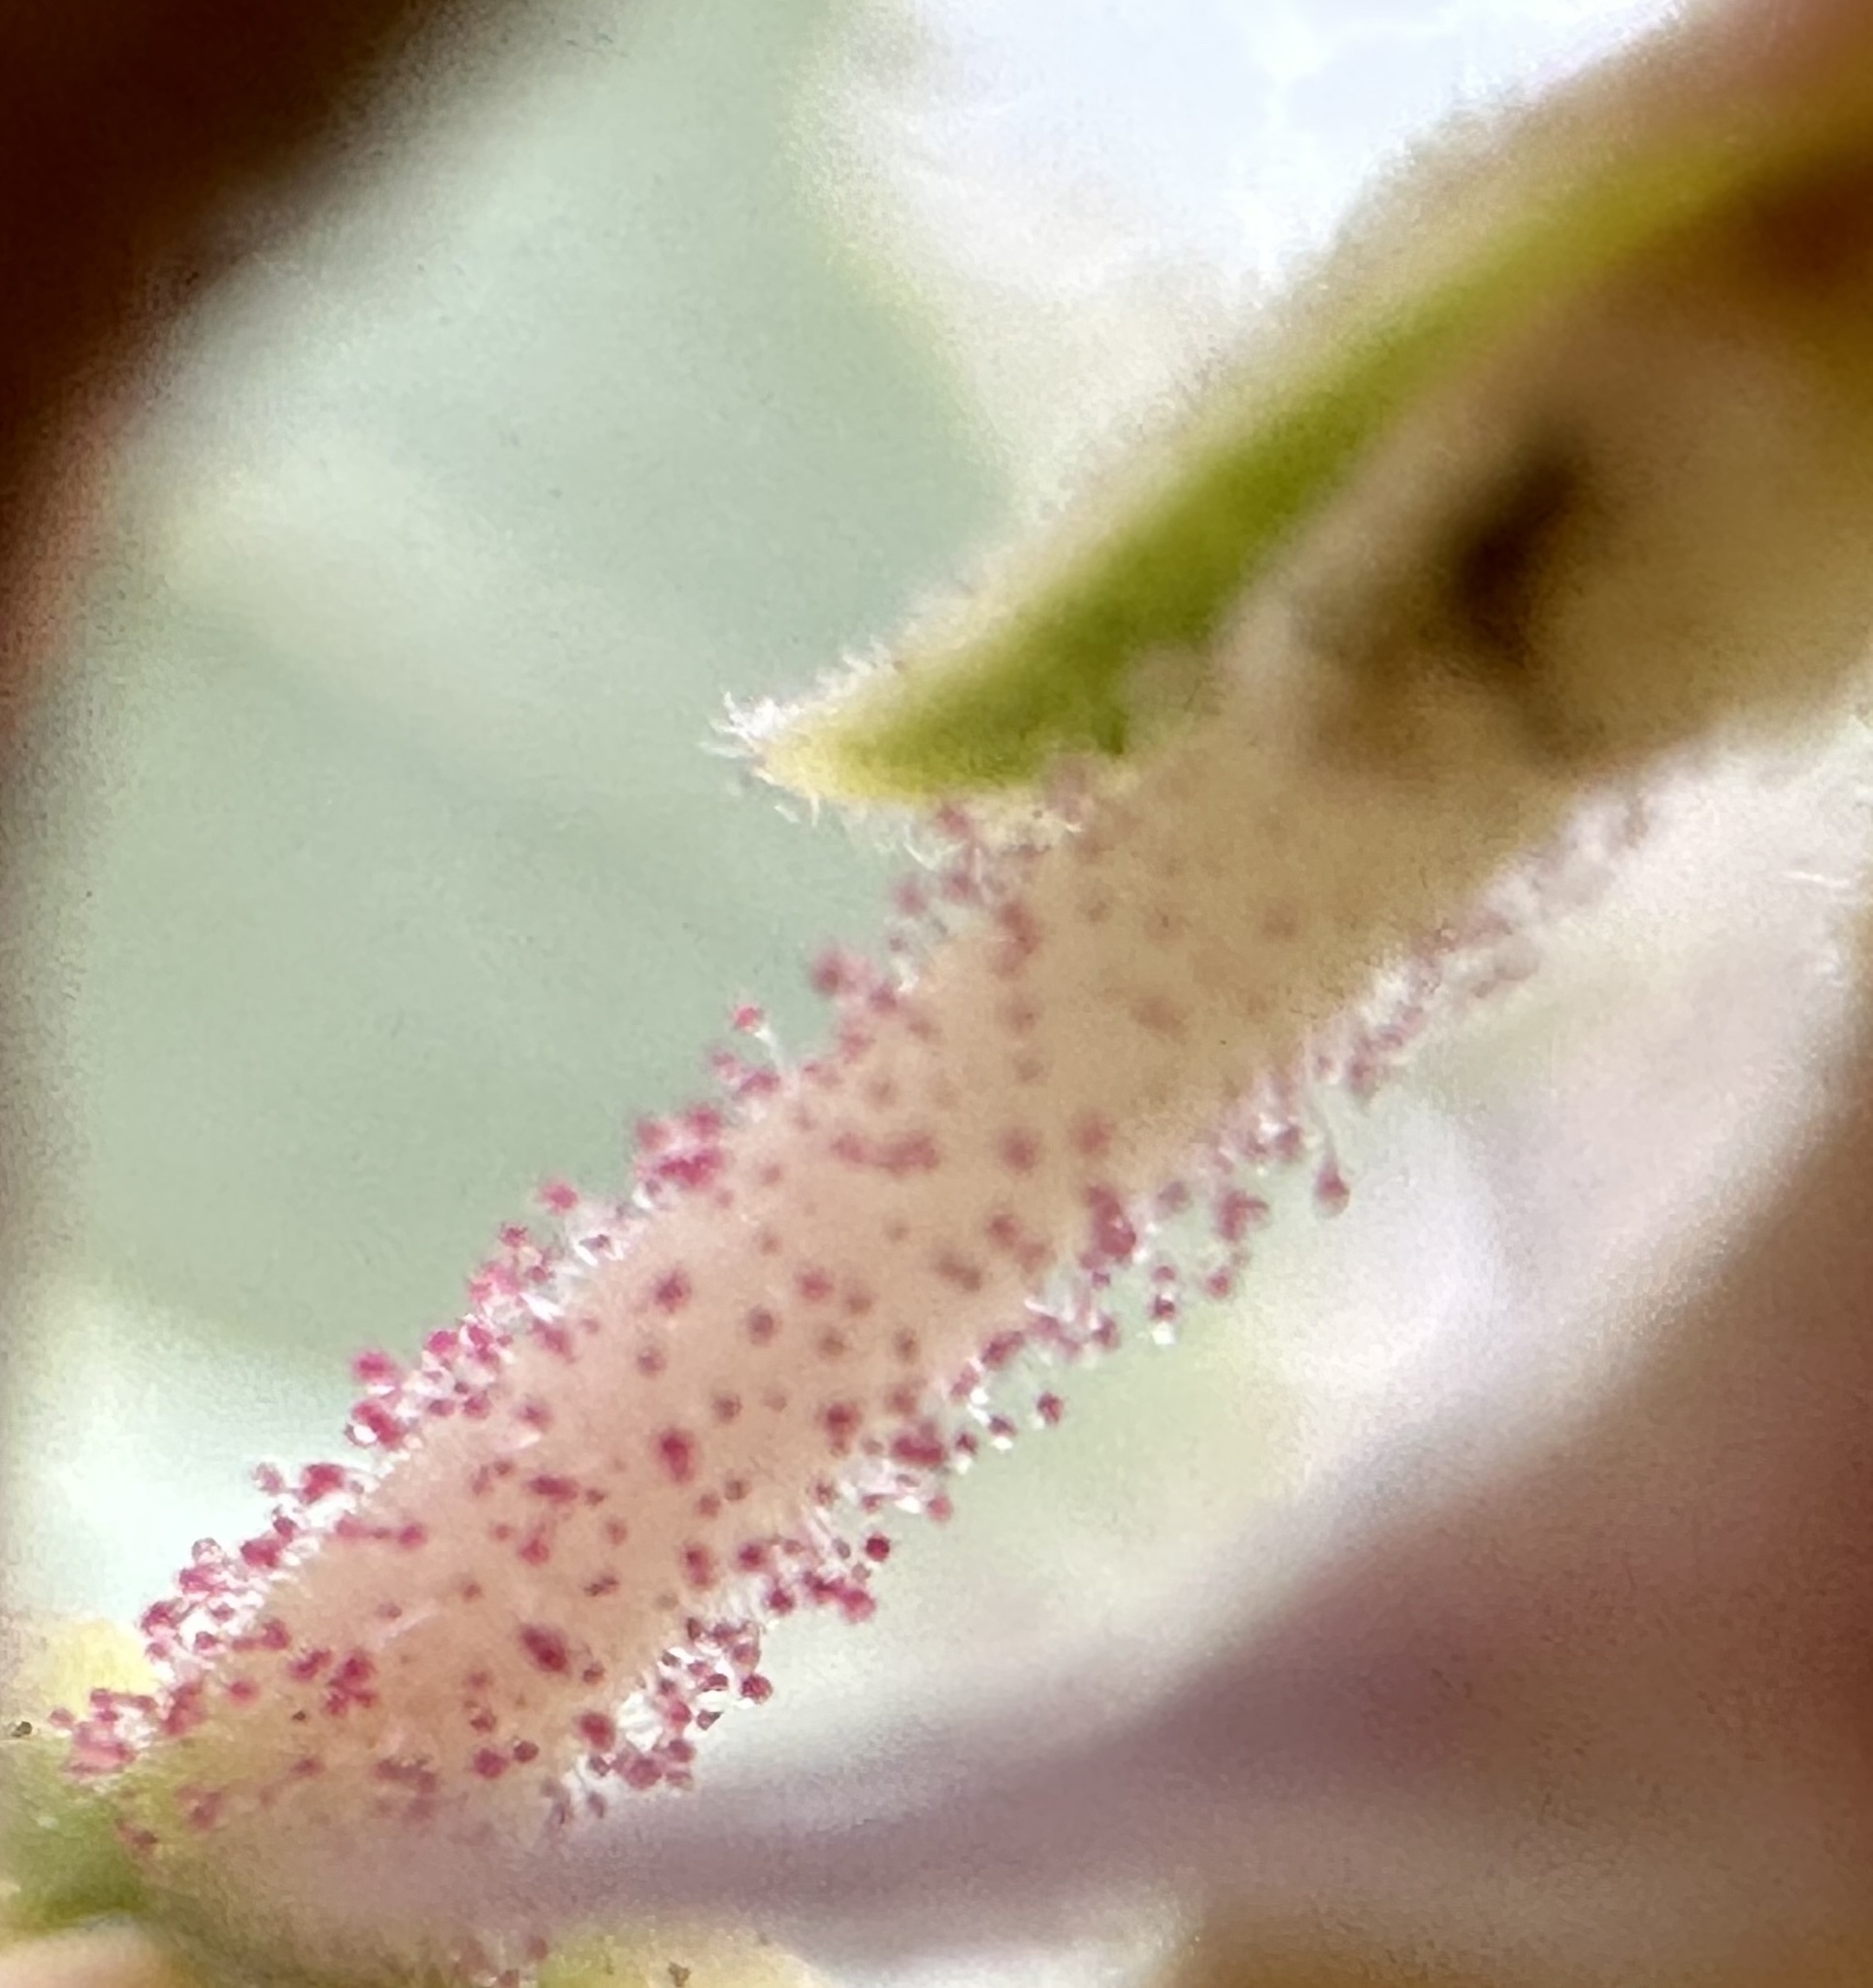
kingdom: Plantae
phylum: Tracheophyta
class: Magnoliopsida
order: Ericales
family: Ericaceae
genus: Arctostaphylos
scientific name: Arctostaphylos glauca
